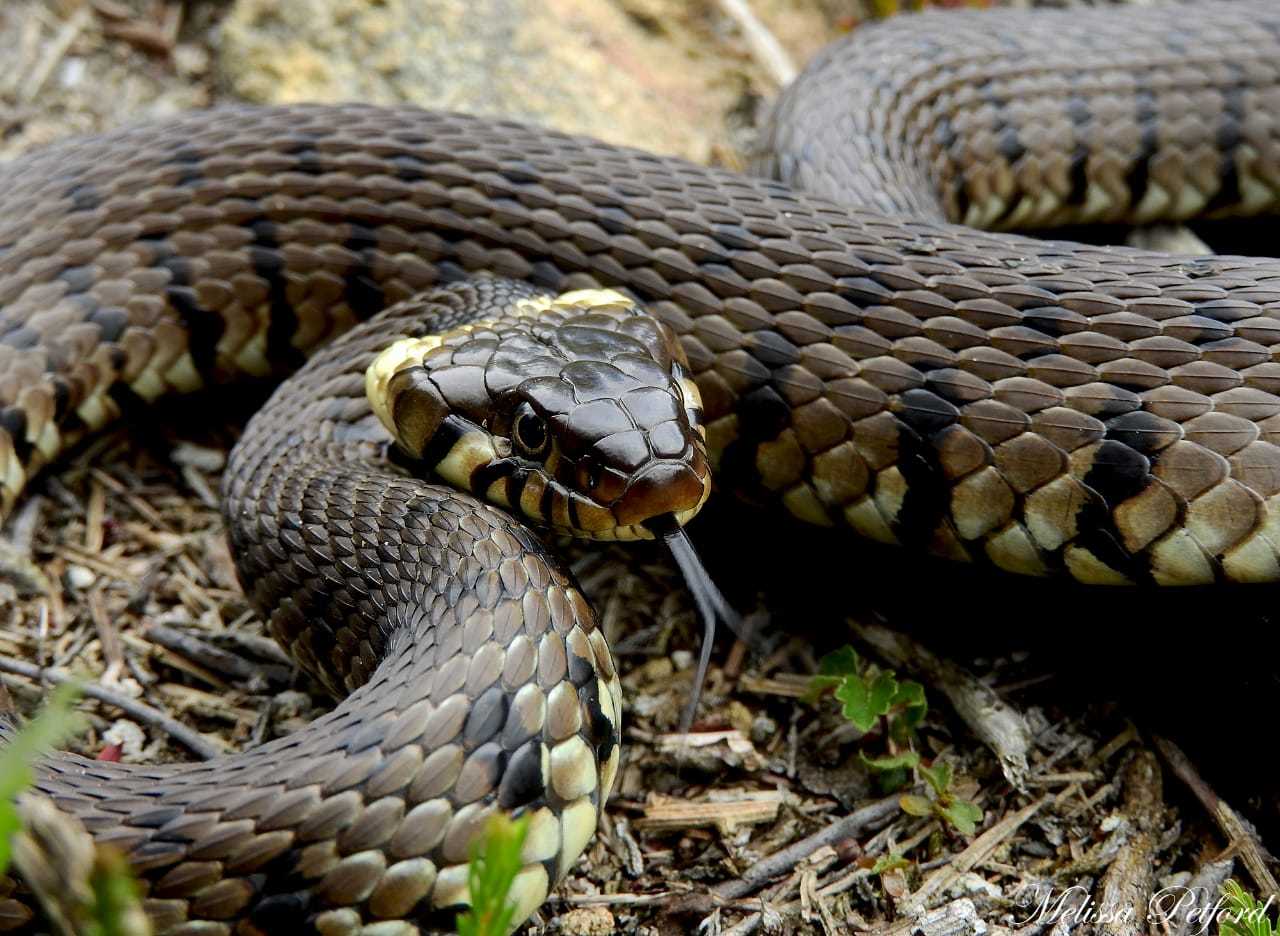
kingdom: Animalia
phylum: Chordata
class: Squamata
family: Colubridae
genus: Natrix
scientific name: Natrix helvetica
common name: Banded grass snake
